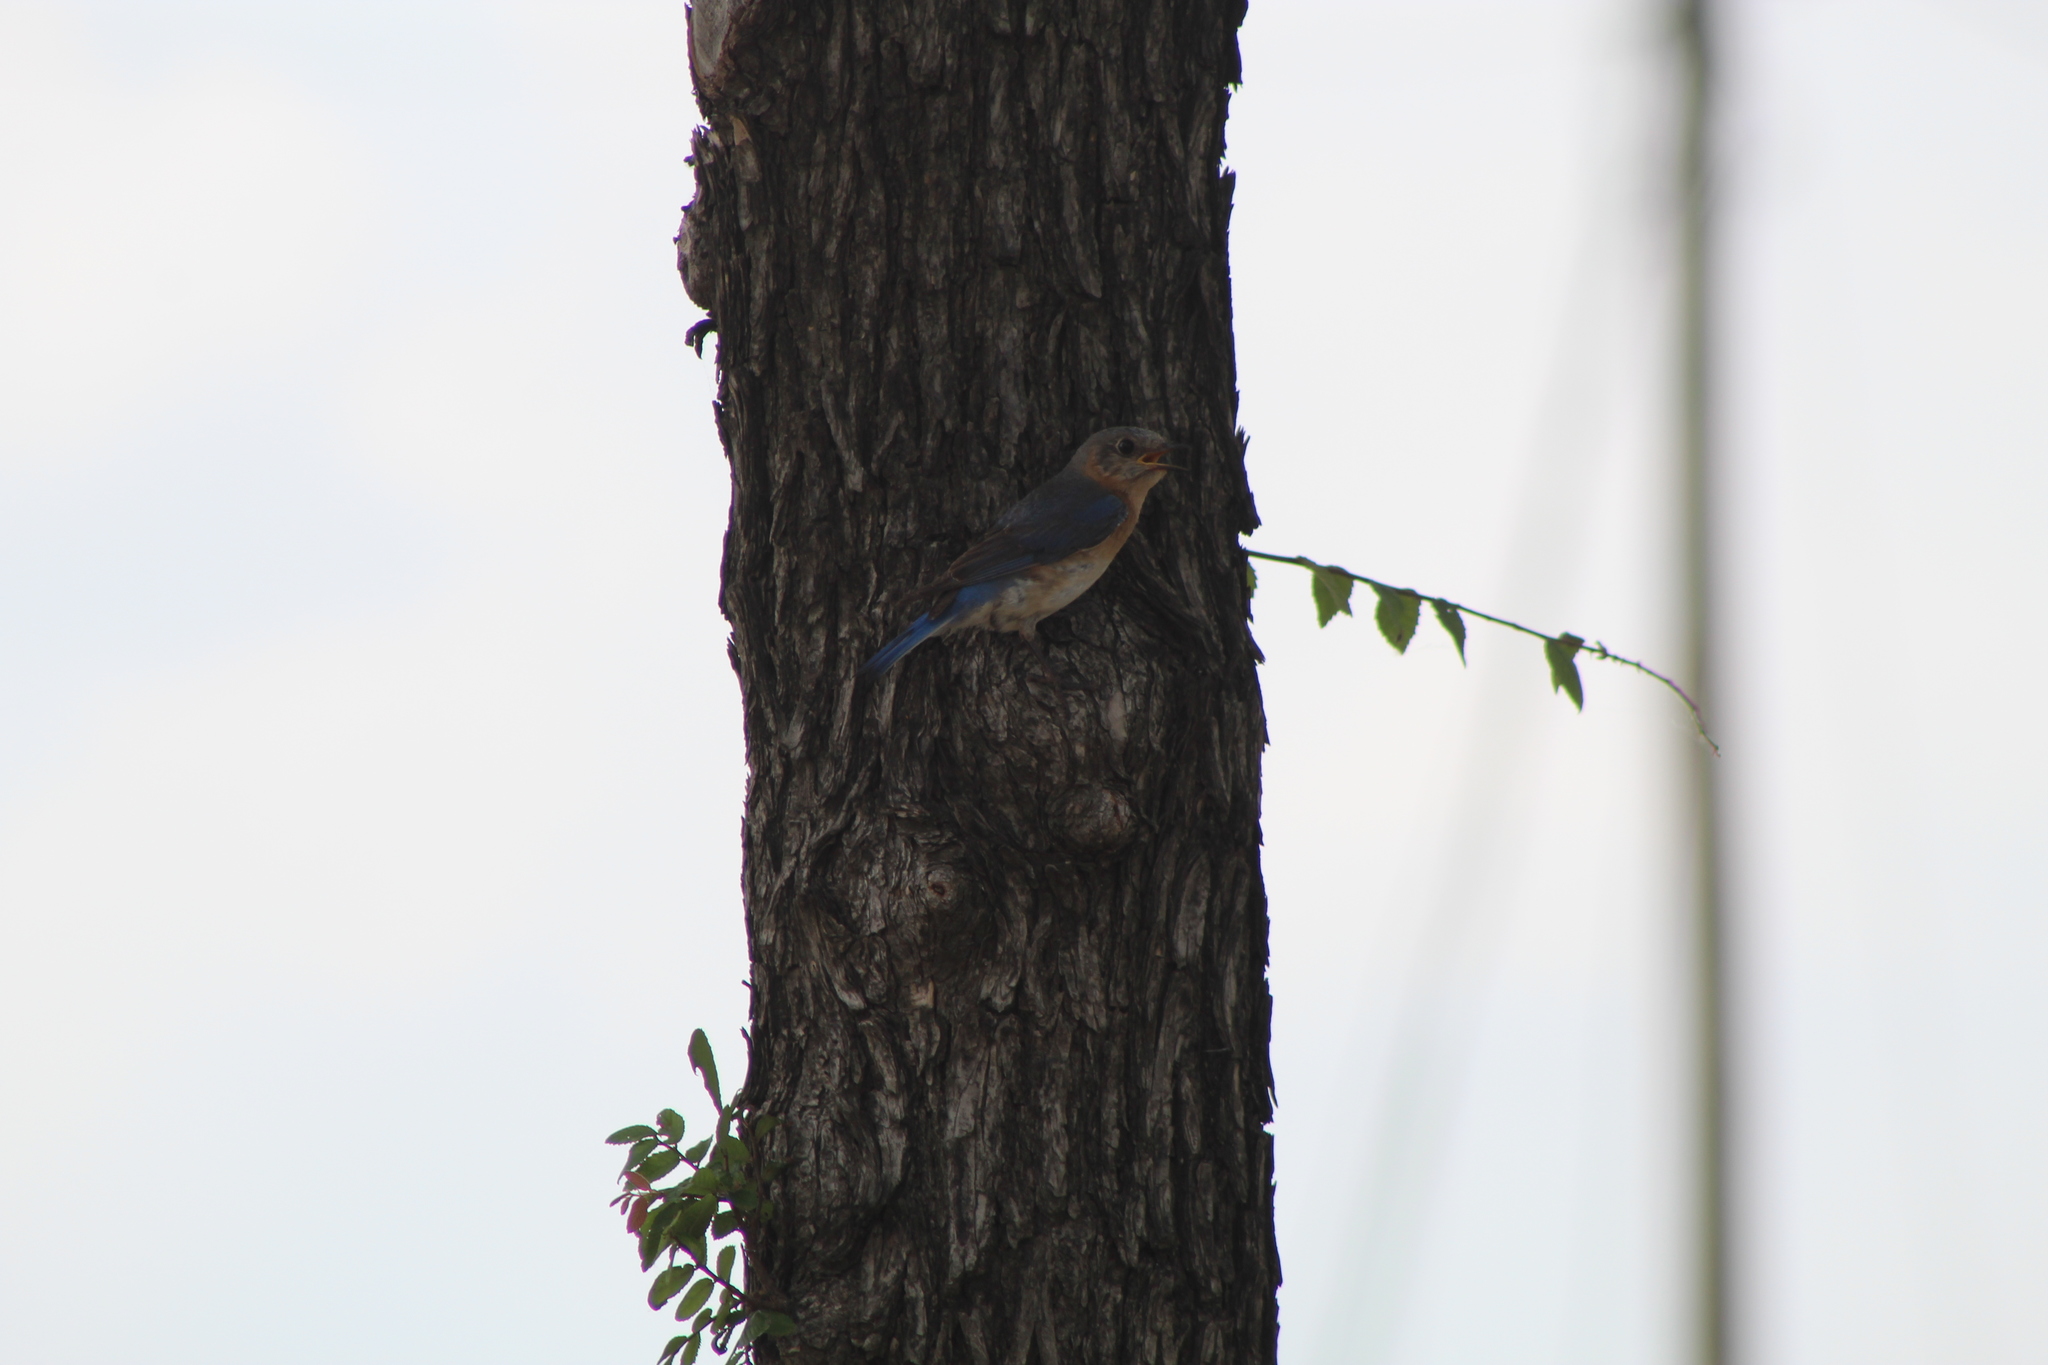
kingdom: Animalia
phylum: Chordata
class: Aves
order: Passeriformes
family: Turdidae
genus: Sialia
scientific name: Sialia sialis
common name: Eastern bluebird
